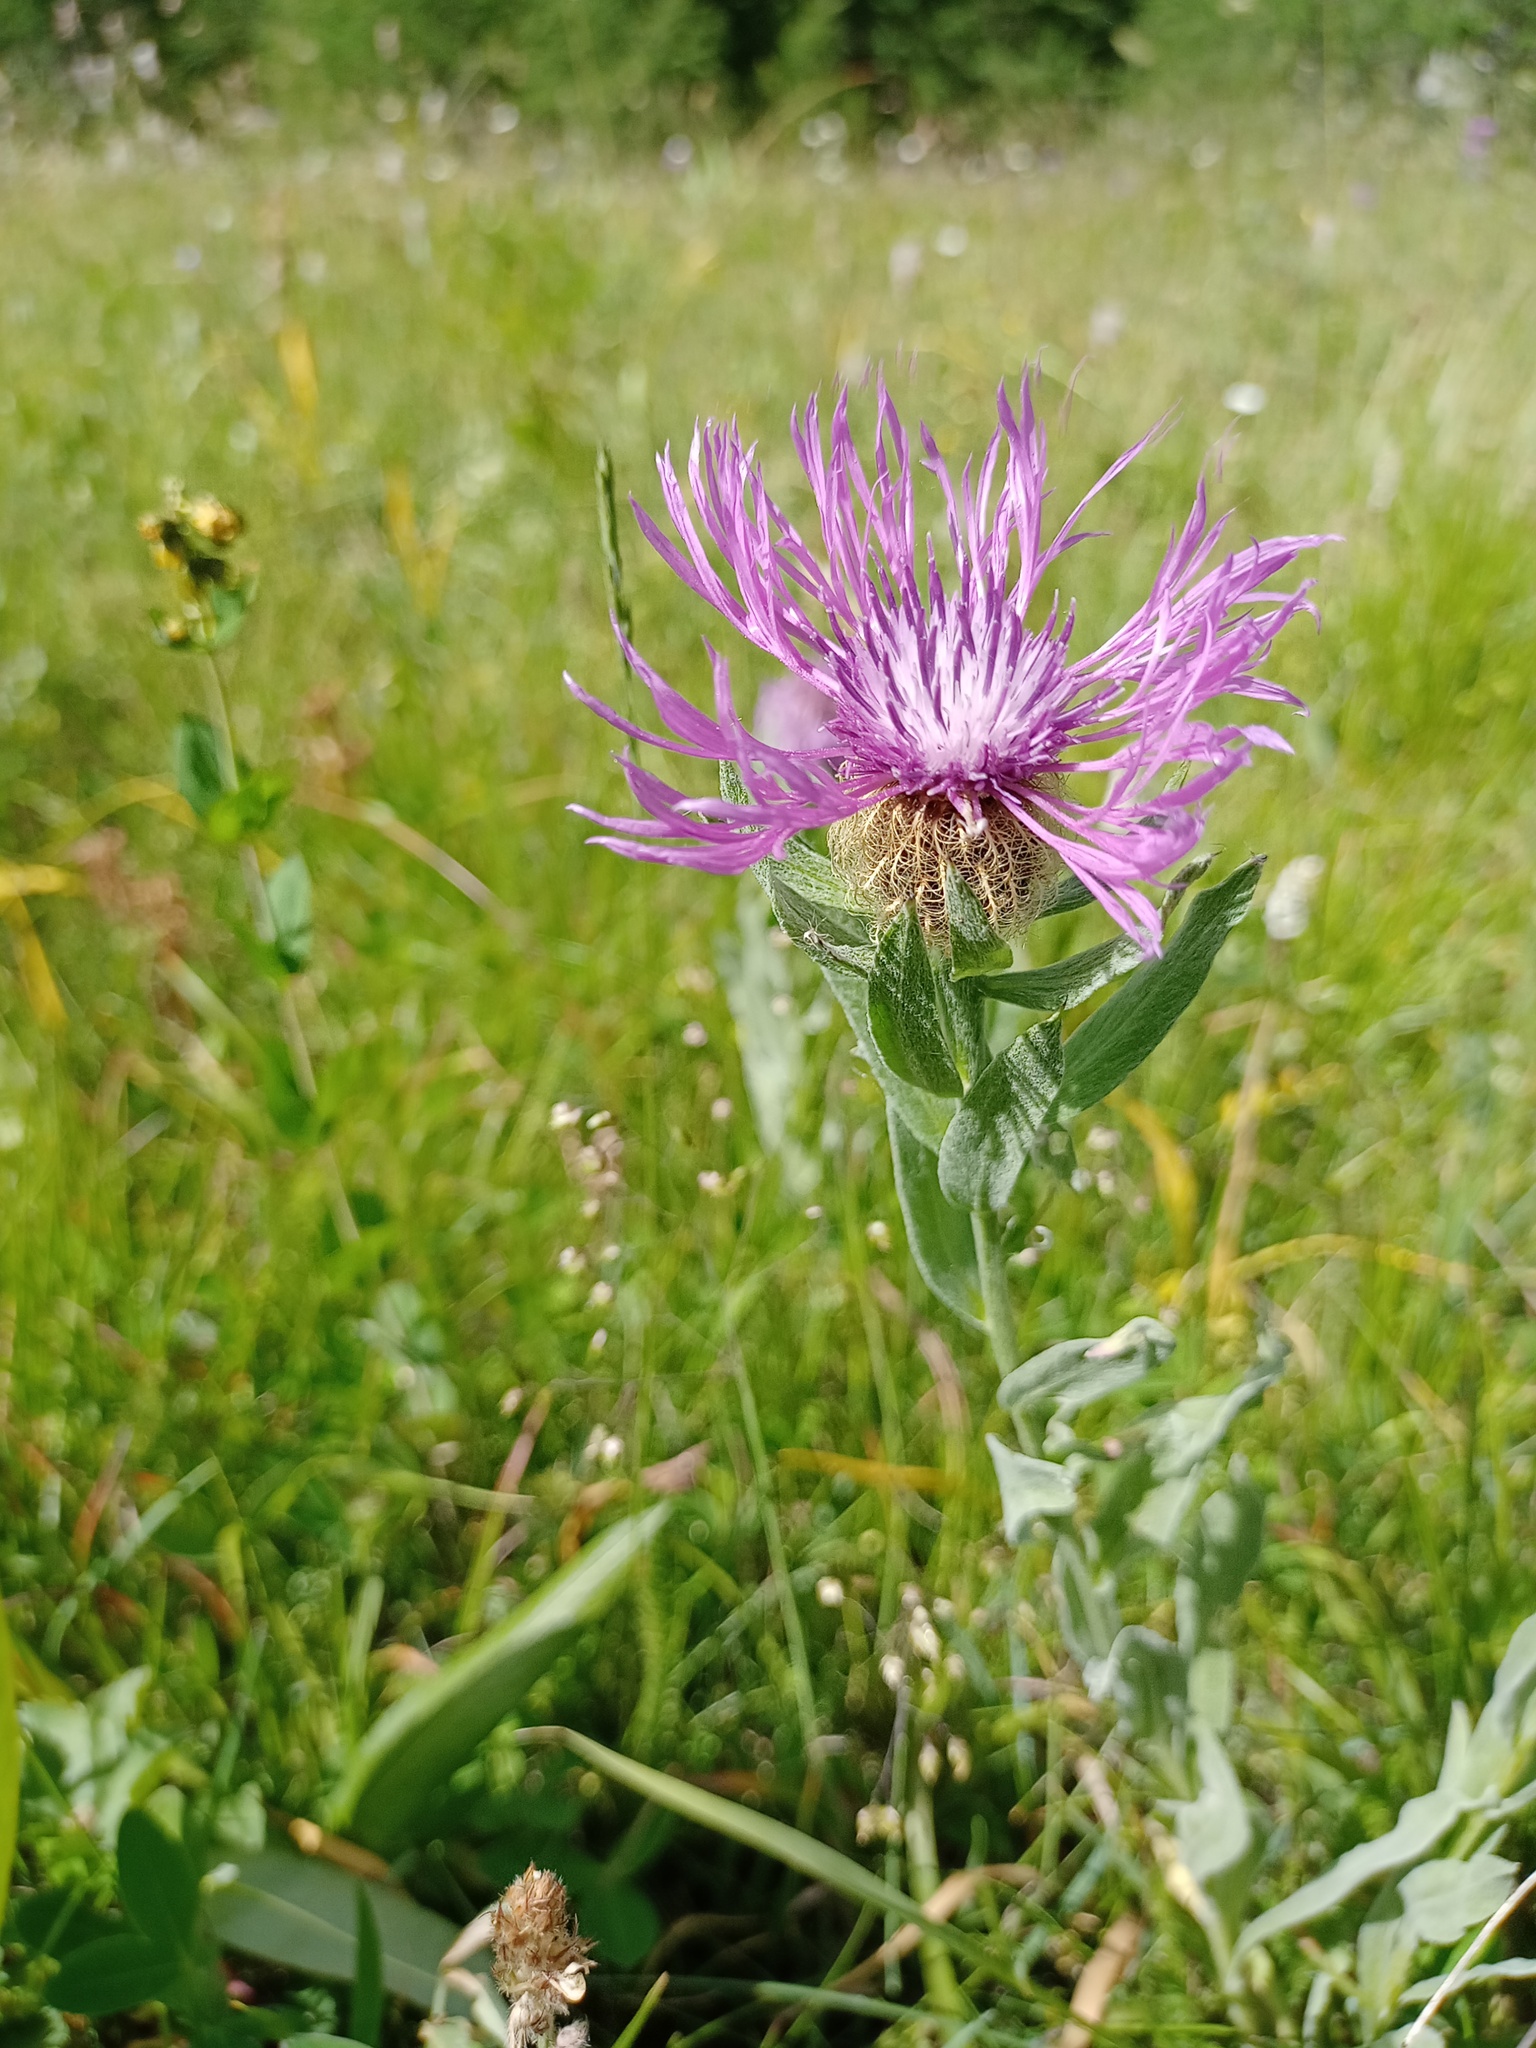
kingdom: Plantae
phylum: Tracheophyta
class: Magnoliopsida
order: Asterales
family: Asteraceae
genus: Centaurea
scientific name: Centaurea uniflora
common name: Singleflower knapweed
